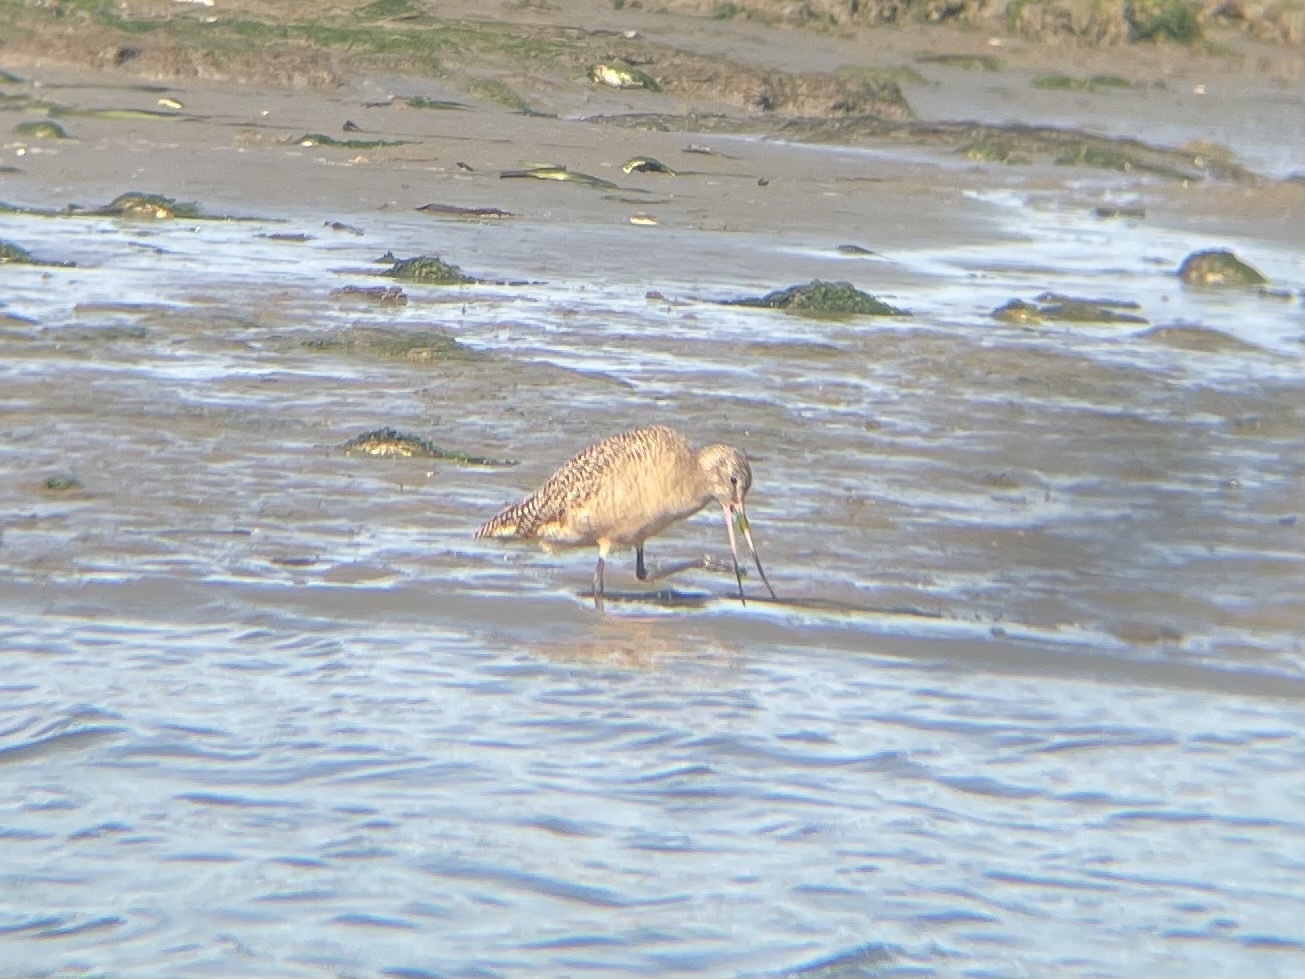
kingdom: Animalia
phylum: Chordata
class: Aves
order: Charadriiformes
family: Scolopacidae
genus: Limosa
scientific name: Limosa fedoa
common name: Marbled godwit
